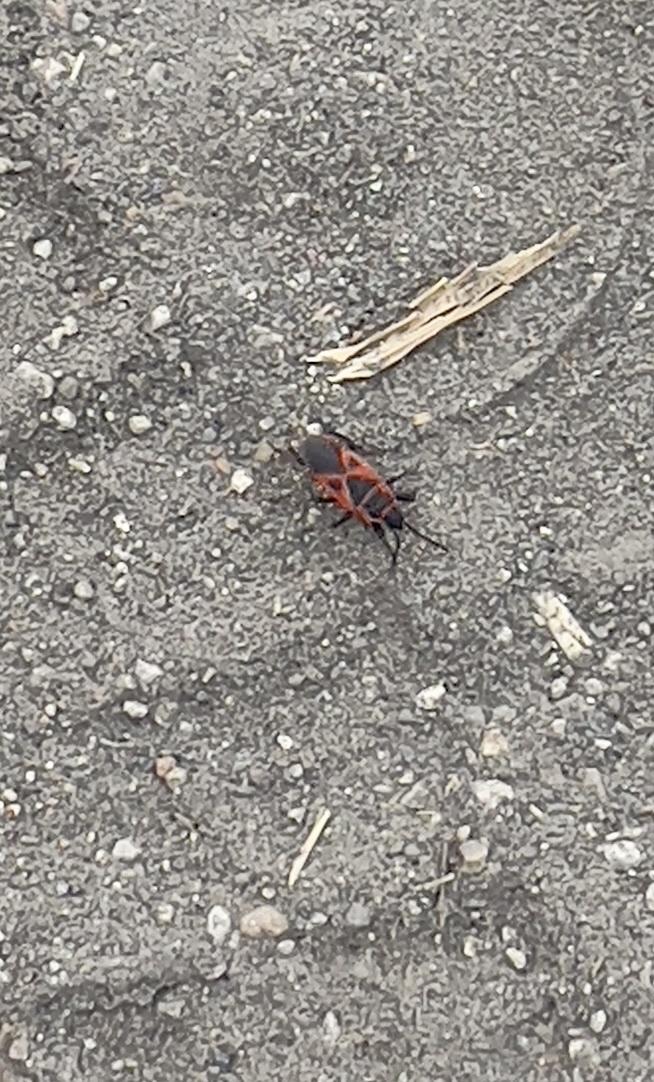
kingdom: Animalia
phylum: Arthropoda
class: Insecta
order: Hemiptera
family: Pyrrhocoridae
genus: Scantius
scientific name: Scantius aegyptius
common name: Red bug
